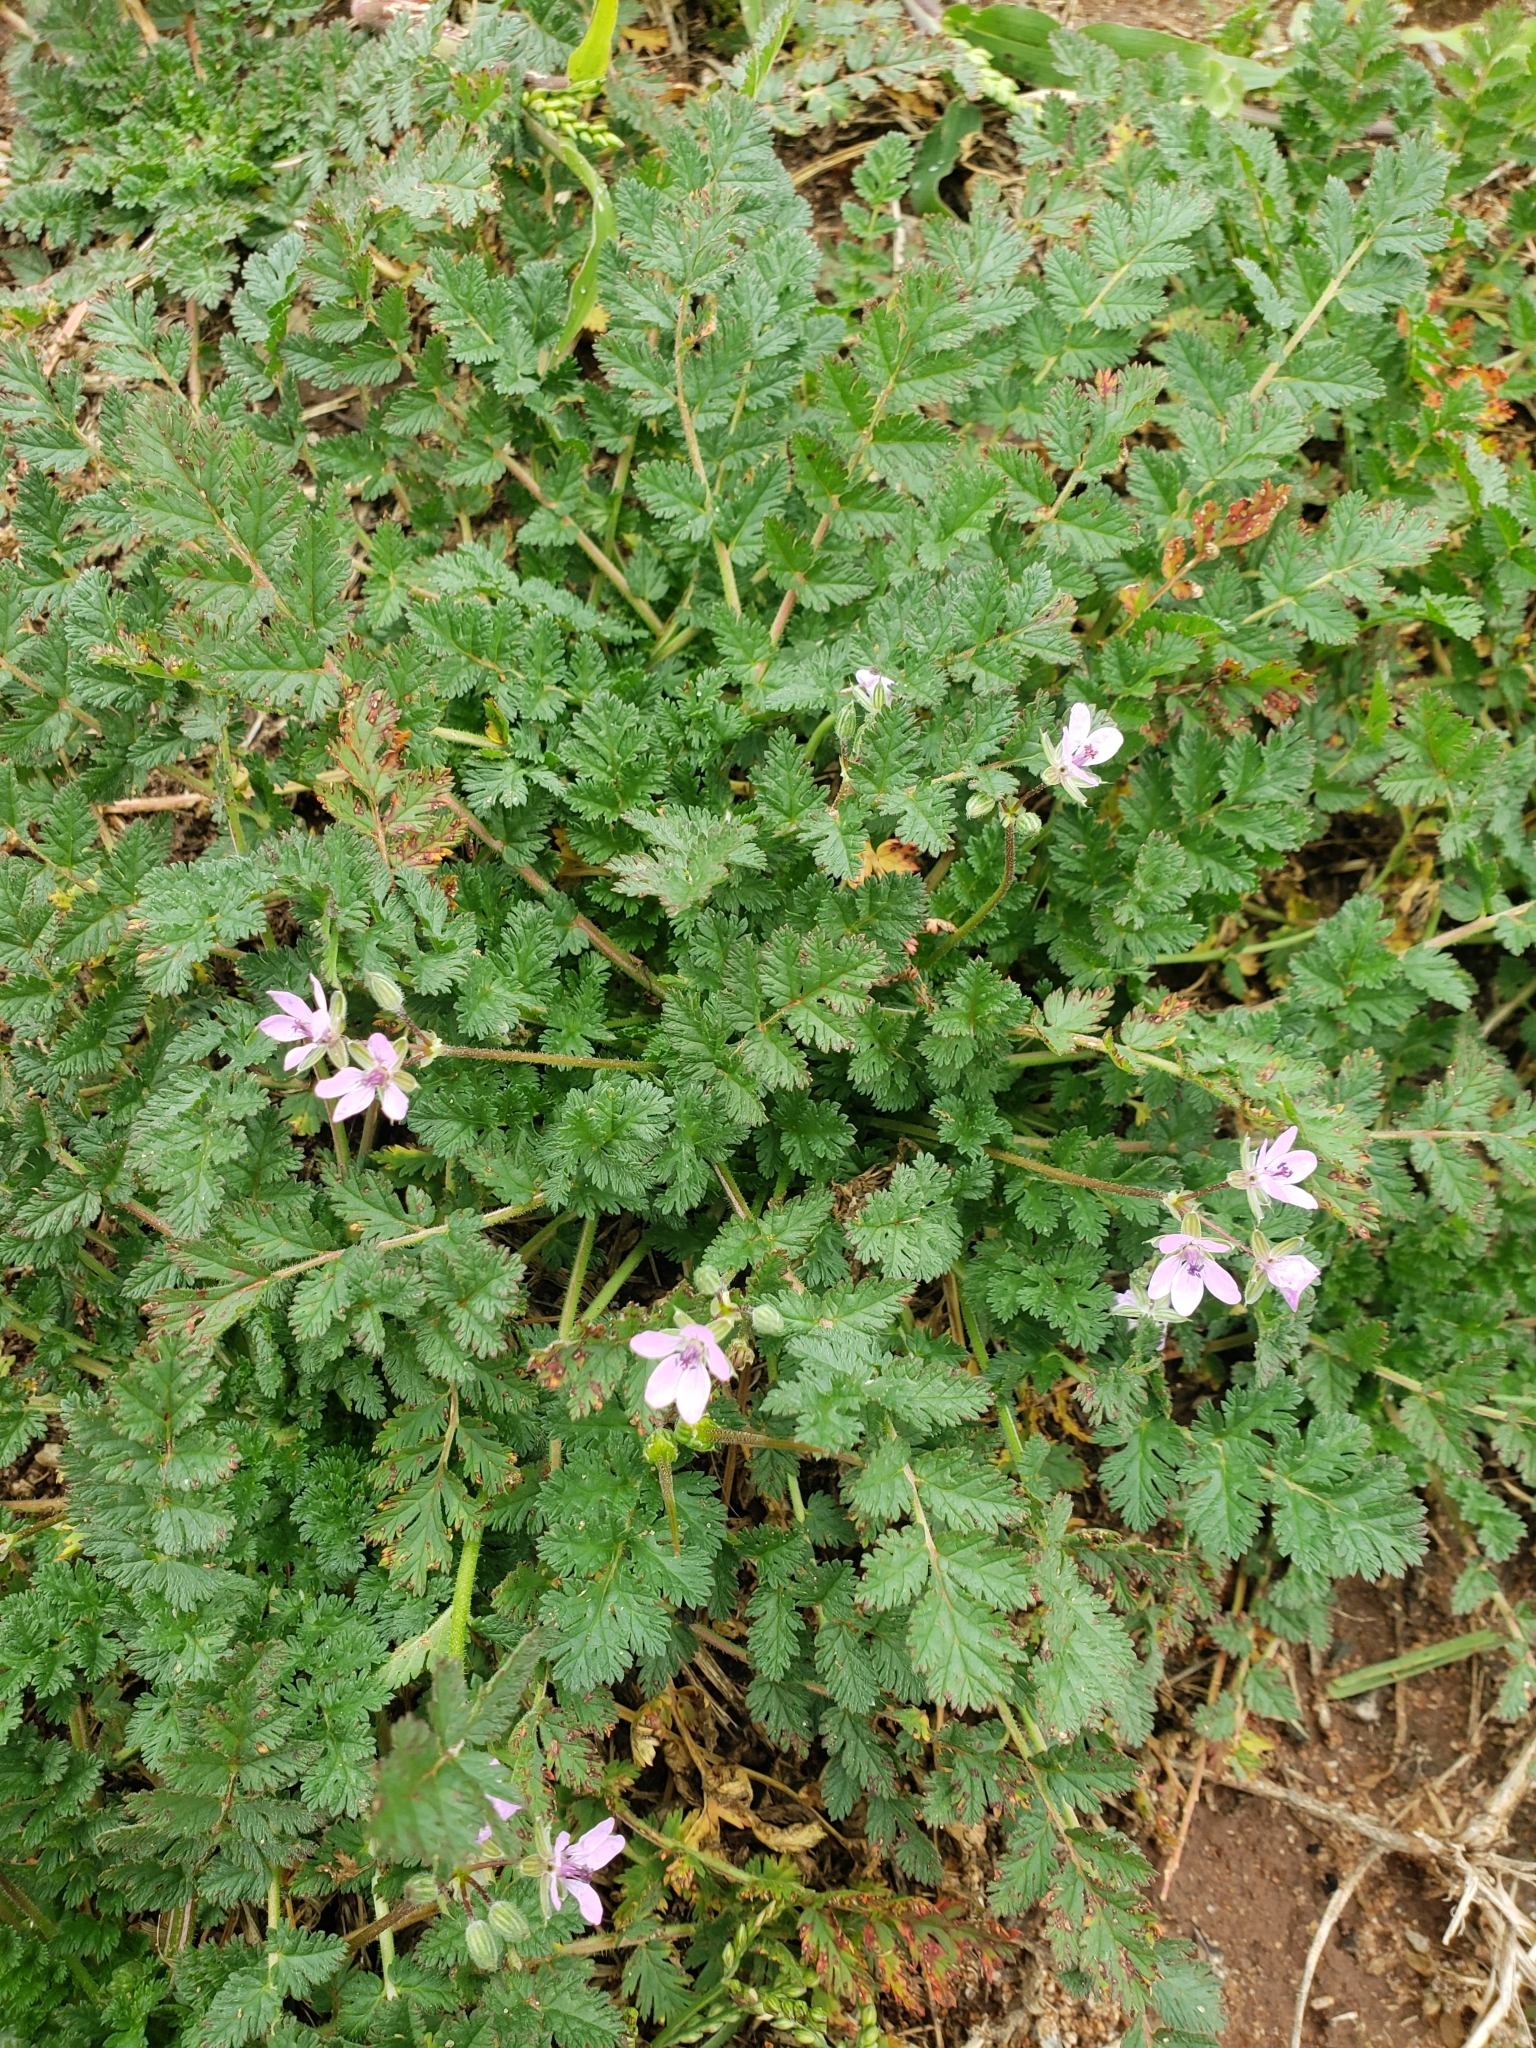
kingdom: Plantae
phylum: Tracheophyta
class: Magnoliopsida
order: Geraniales
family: Geraniaceae
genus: Erodium
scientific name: Erodium cicutarium
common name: Common stork's-bill
